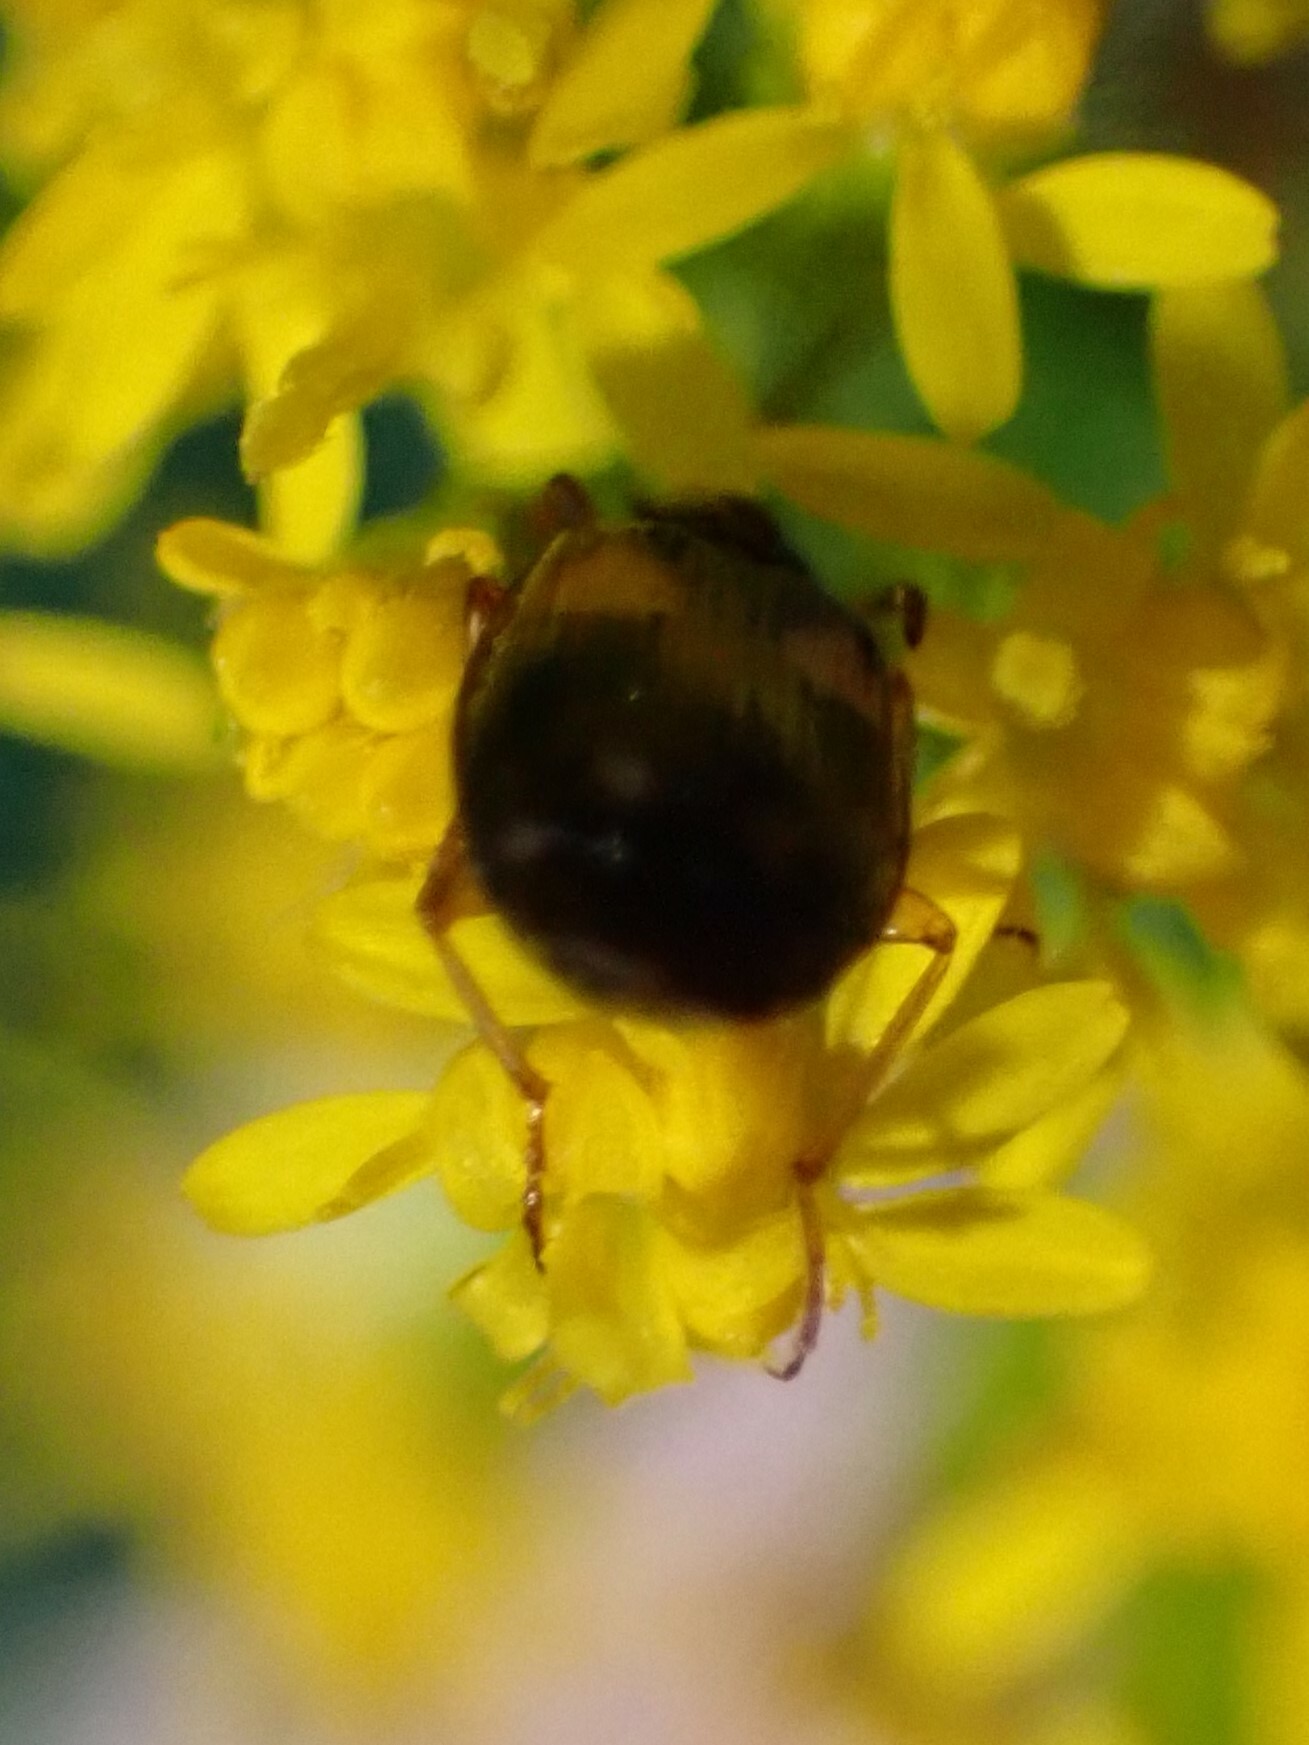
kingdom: Animalia
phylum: Arthropoda
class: Insecta
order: Coleoptera
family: Carabidae
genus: Lebia
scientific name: Lebia ornata
